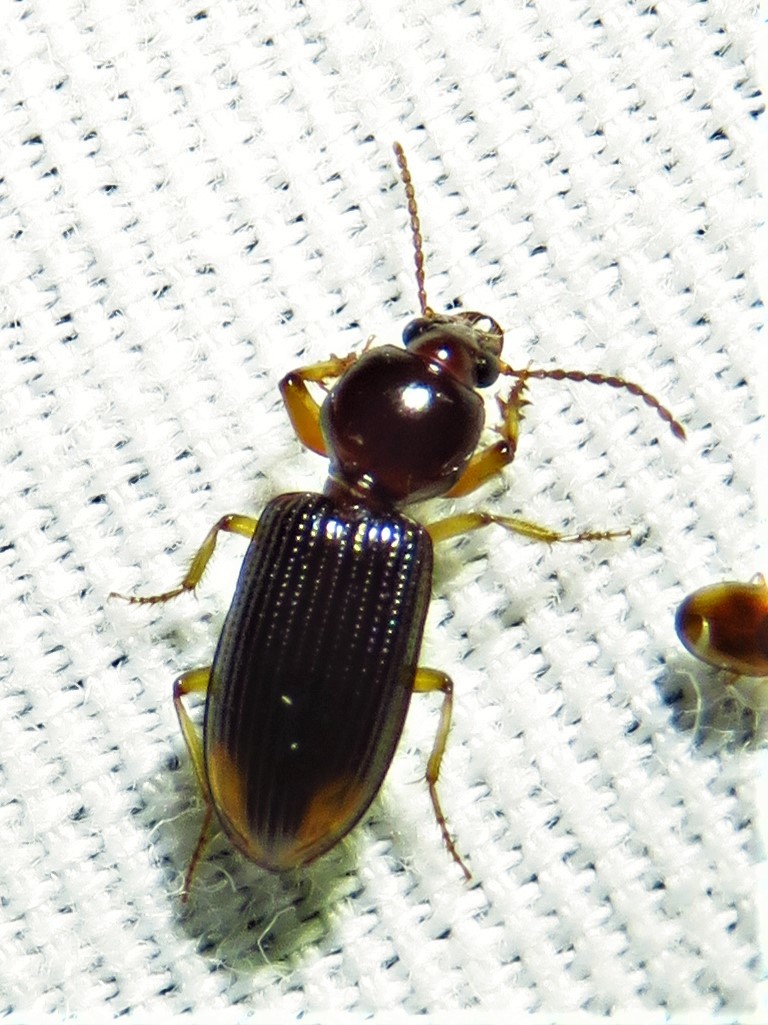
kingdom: Animalia
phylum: Arthropoda
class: Insecta
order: Coleoptera
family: Carabidae
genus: Aspidoglossa
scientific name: Aspidoglossa subangulata
